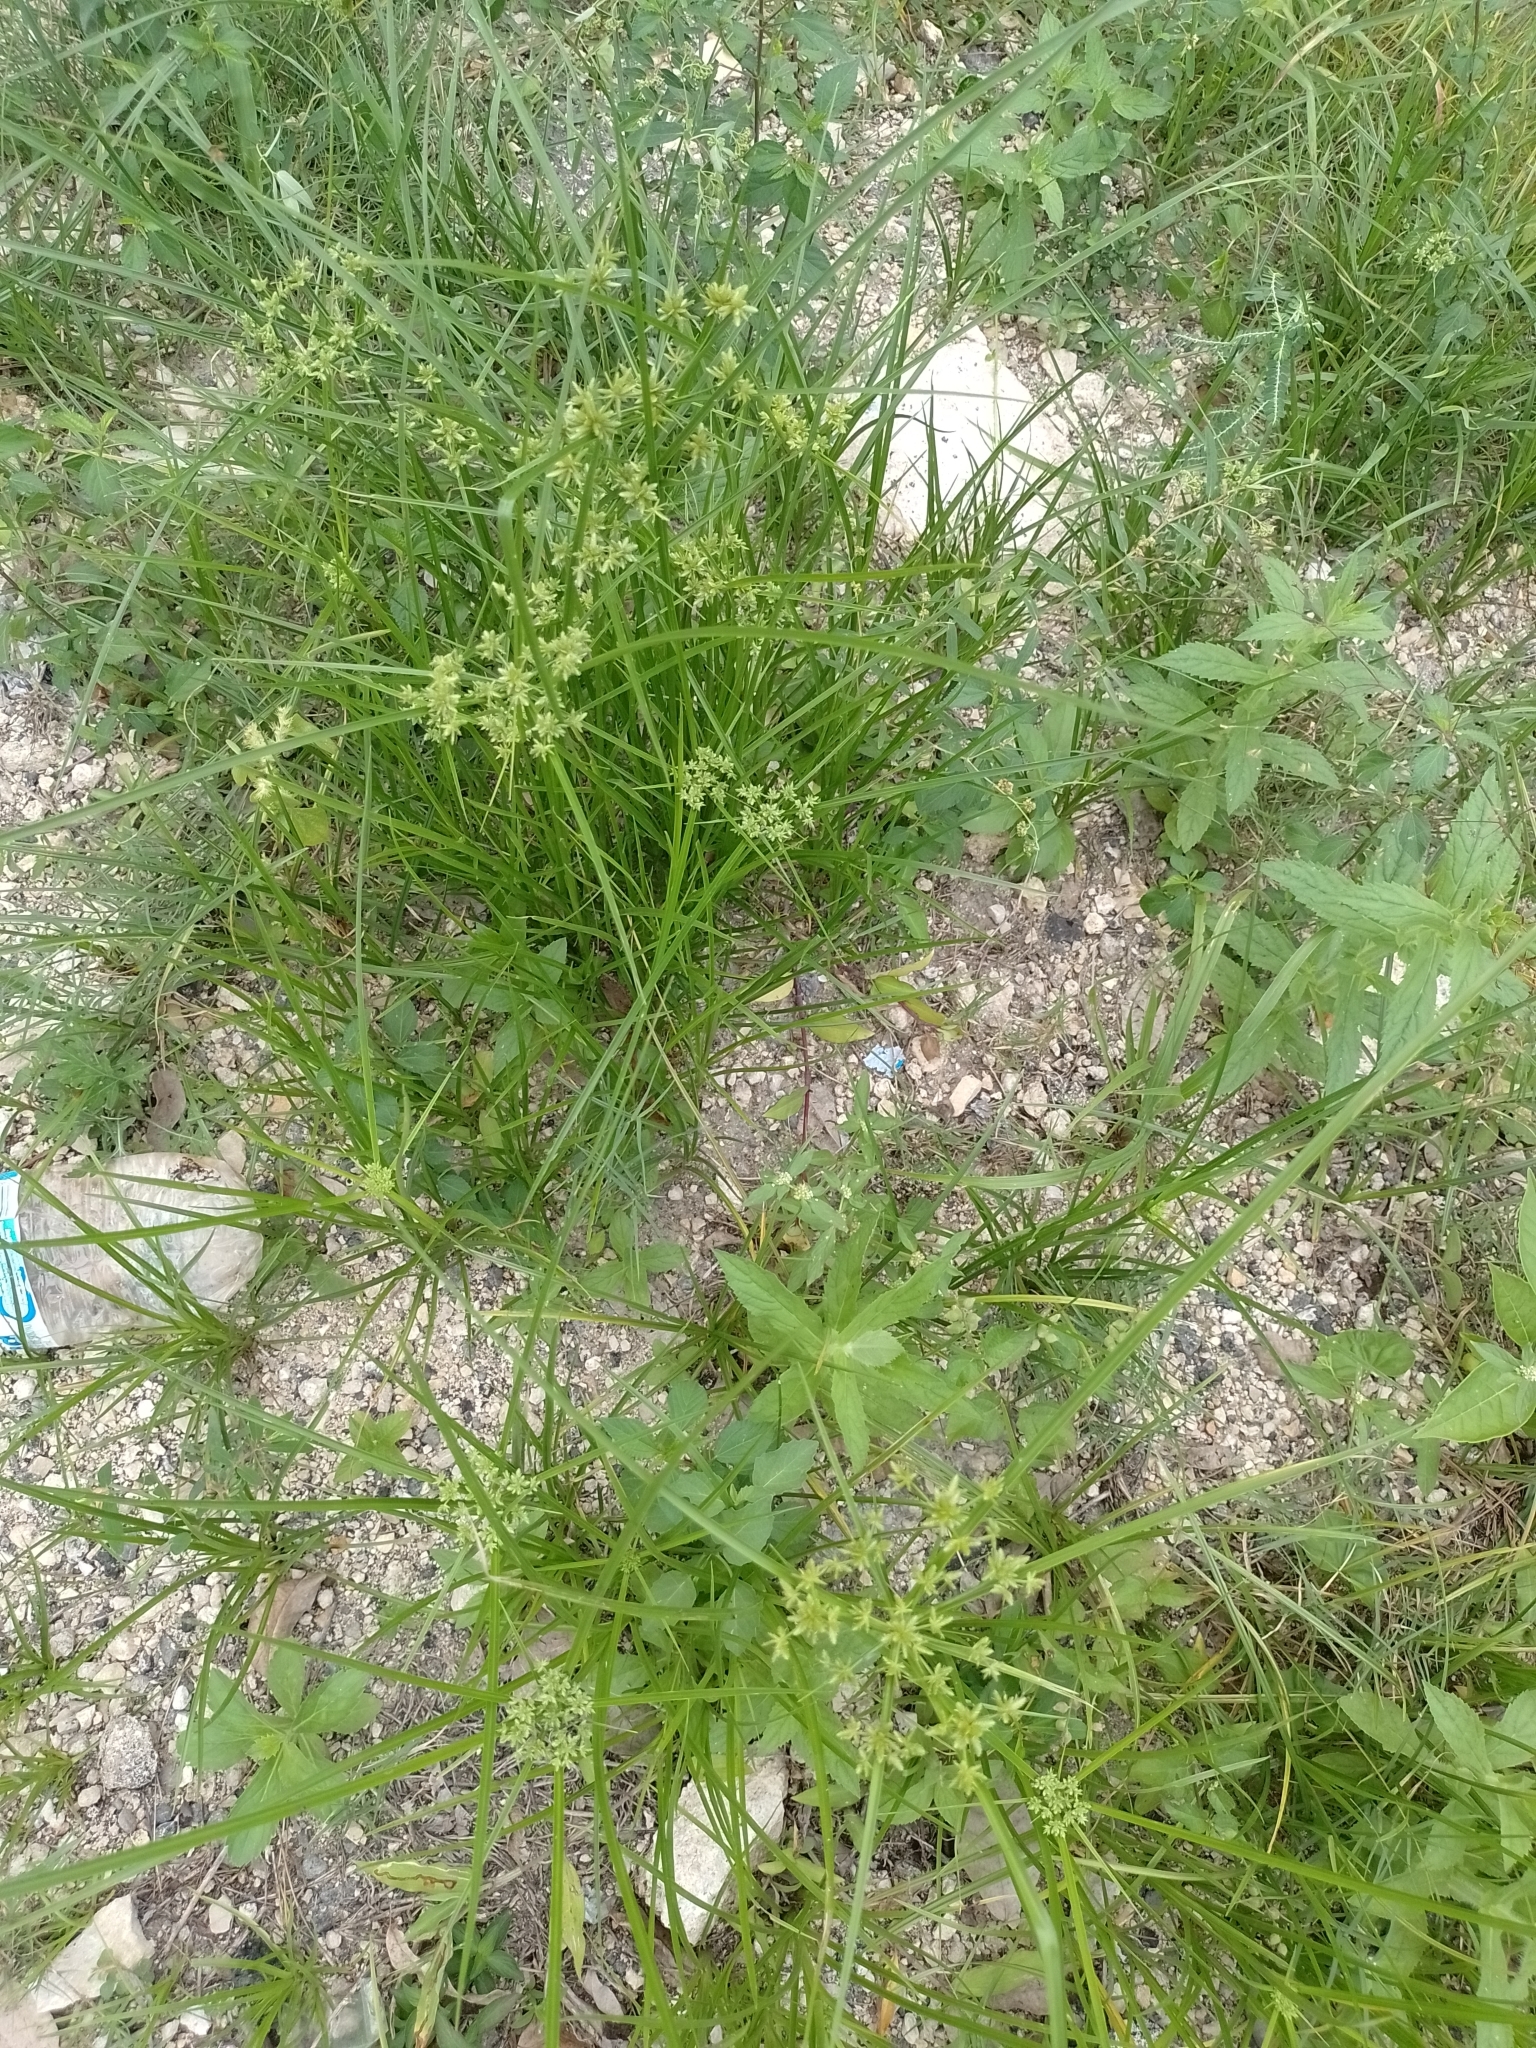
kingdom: Plantae
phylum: Tracheophyta
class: Liliopsida
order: Poales
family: Cyperaceae
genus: Cyperus
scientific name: Cyperus virens
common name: Green flatsedge
